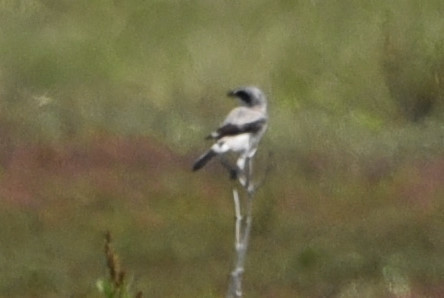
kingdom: Animalia
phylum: Chordata
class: Aves
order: Passeriformes
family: Laniidae
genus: Lanius
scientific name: Lanius ludovicianus
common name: Loggerhead shrike
